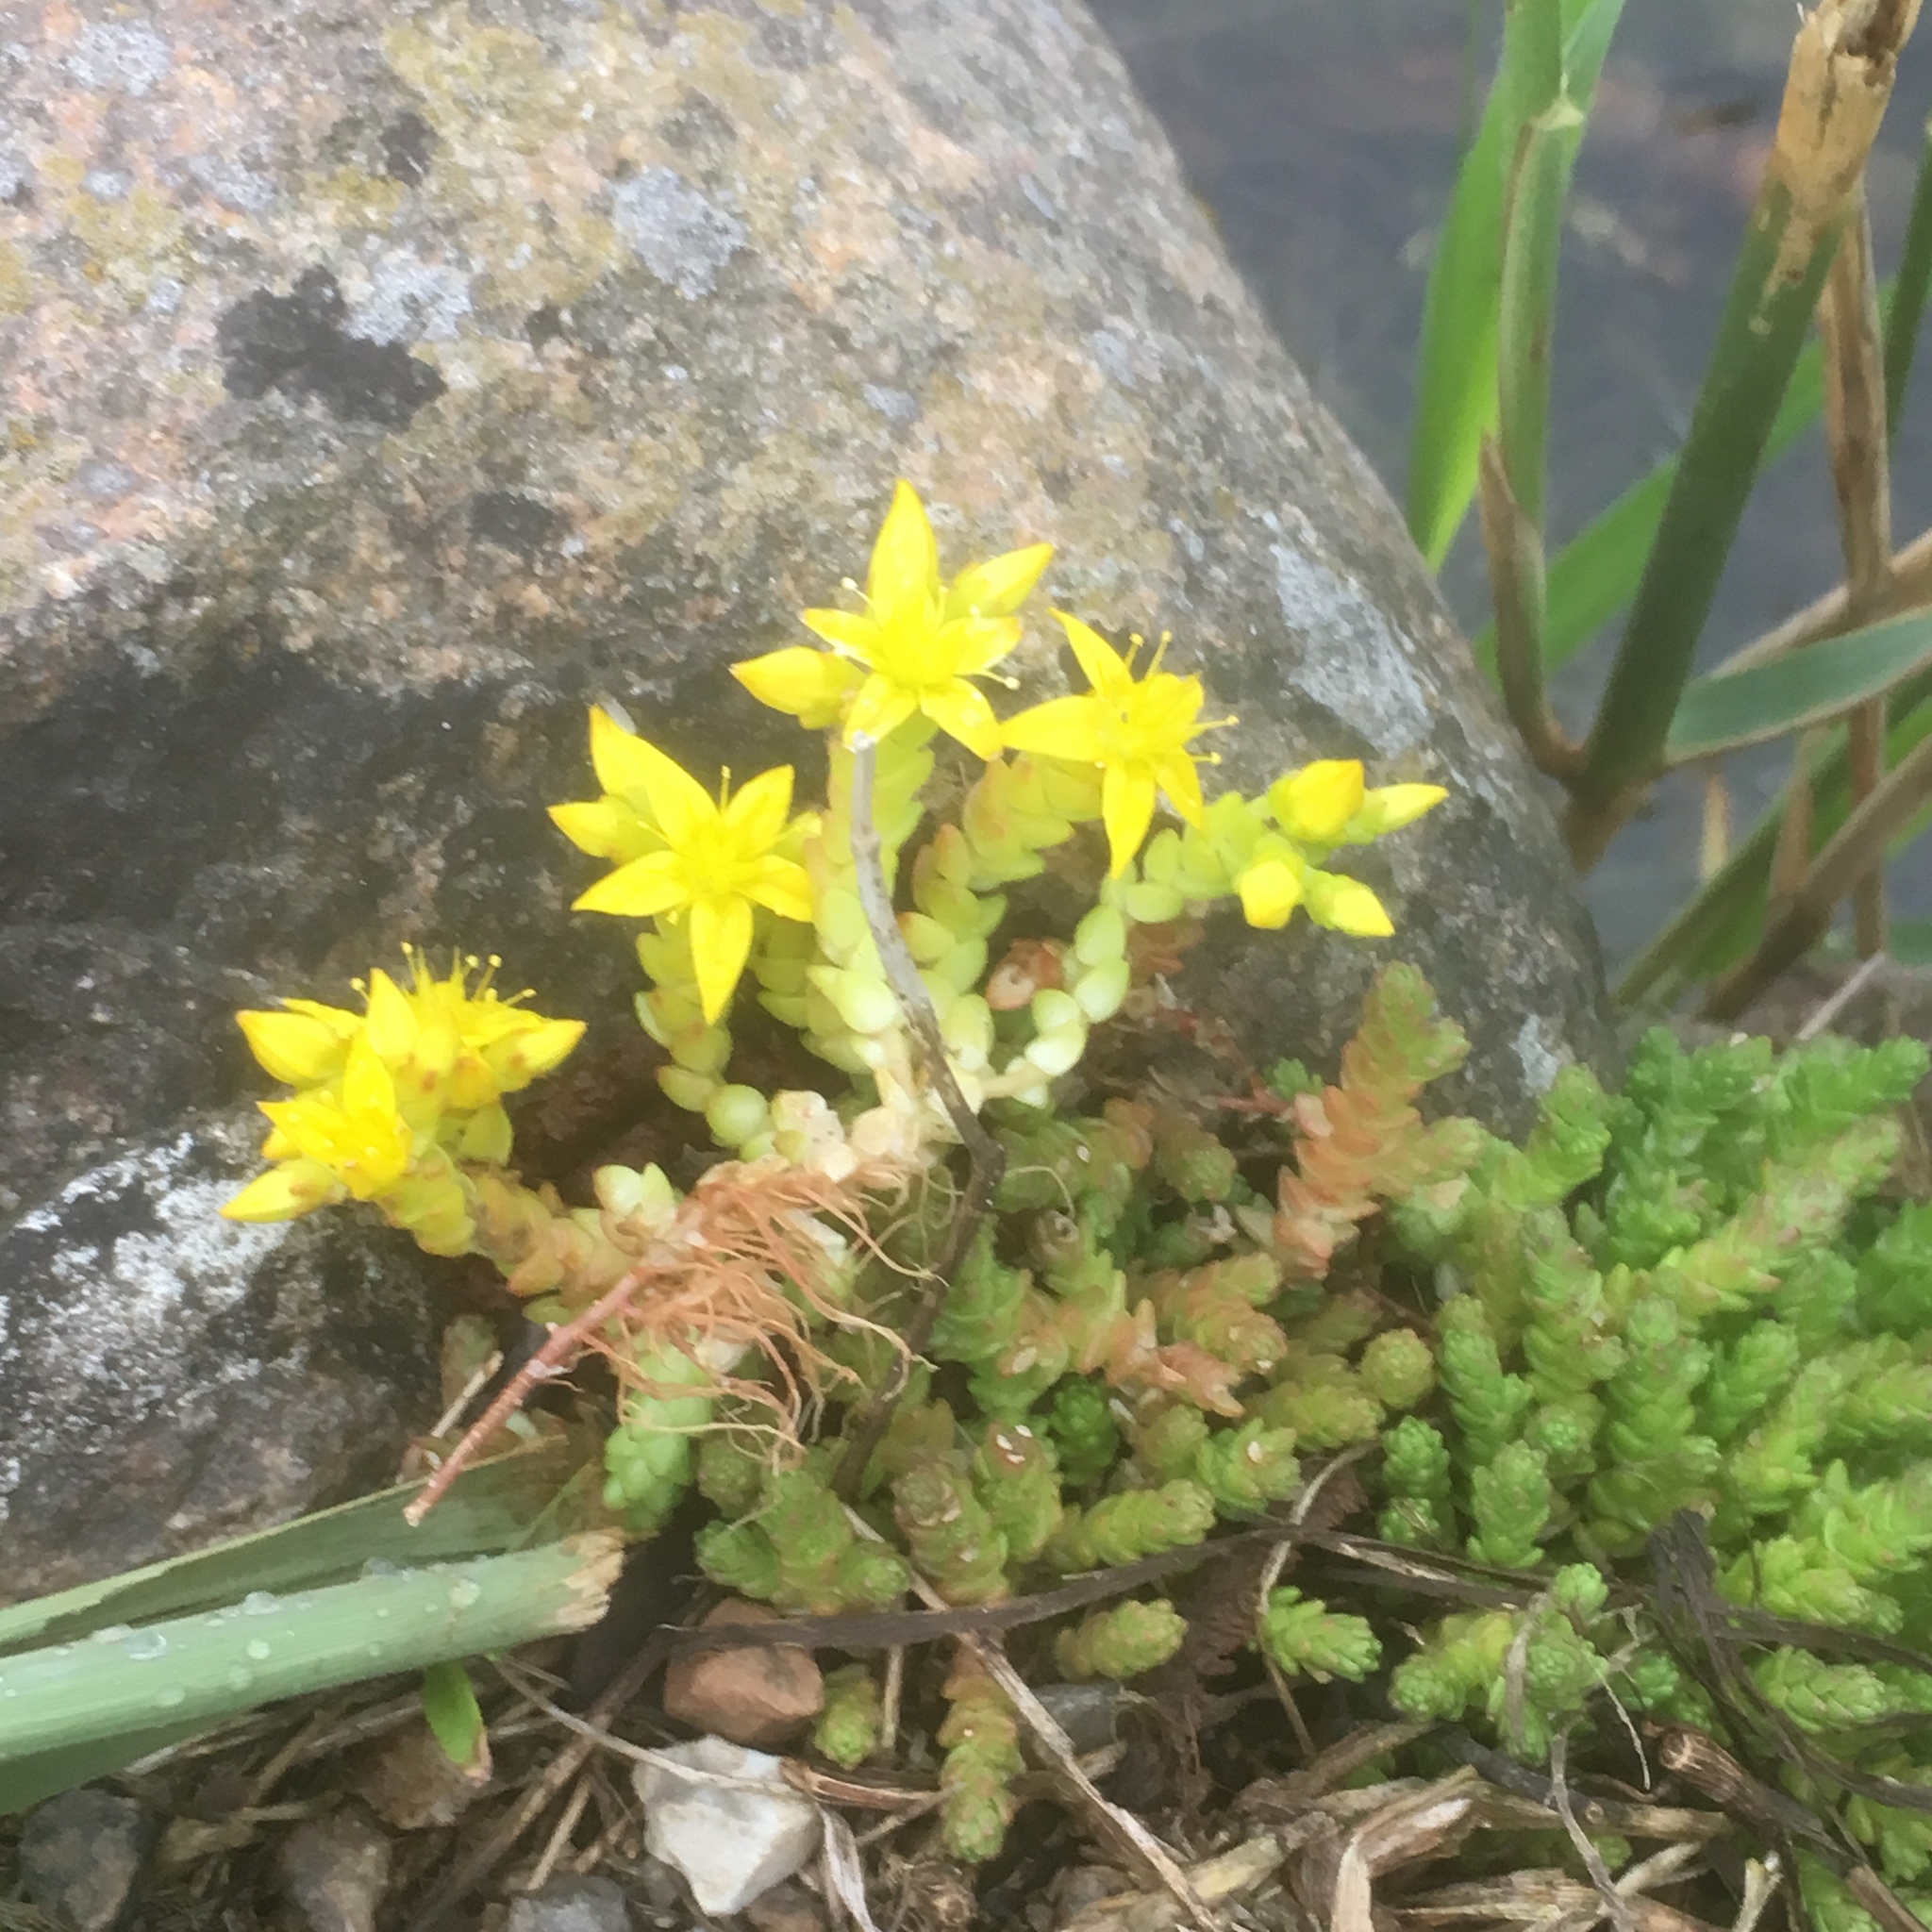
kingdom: Plantae
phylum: Tracheophyta
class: Magnoliopsida
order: Saxifragales
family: Crassulaceae
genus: Sedum
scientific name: Sedum acre
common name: Biting stonecrop
